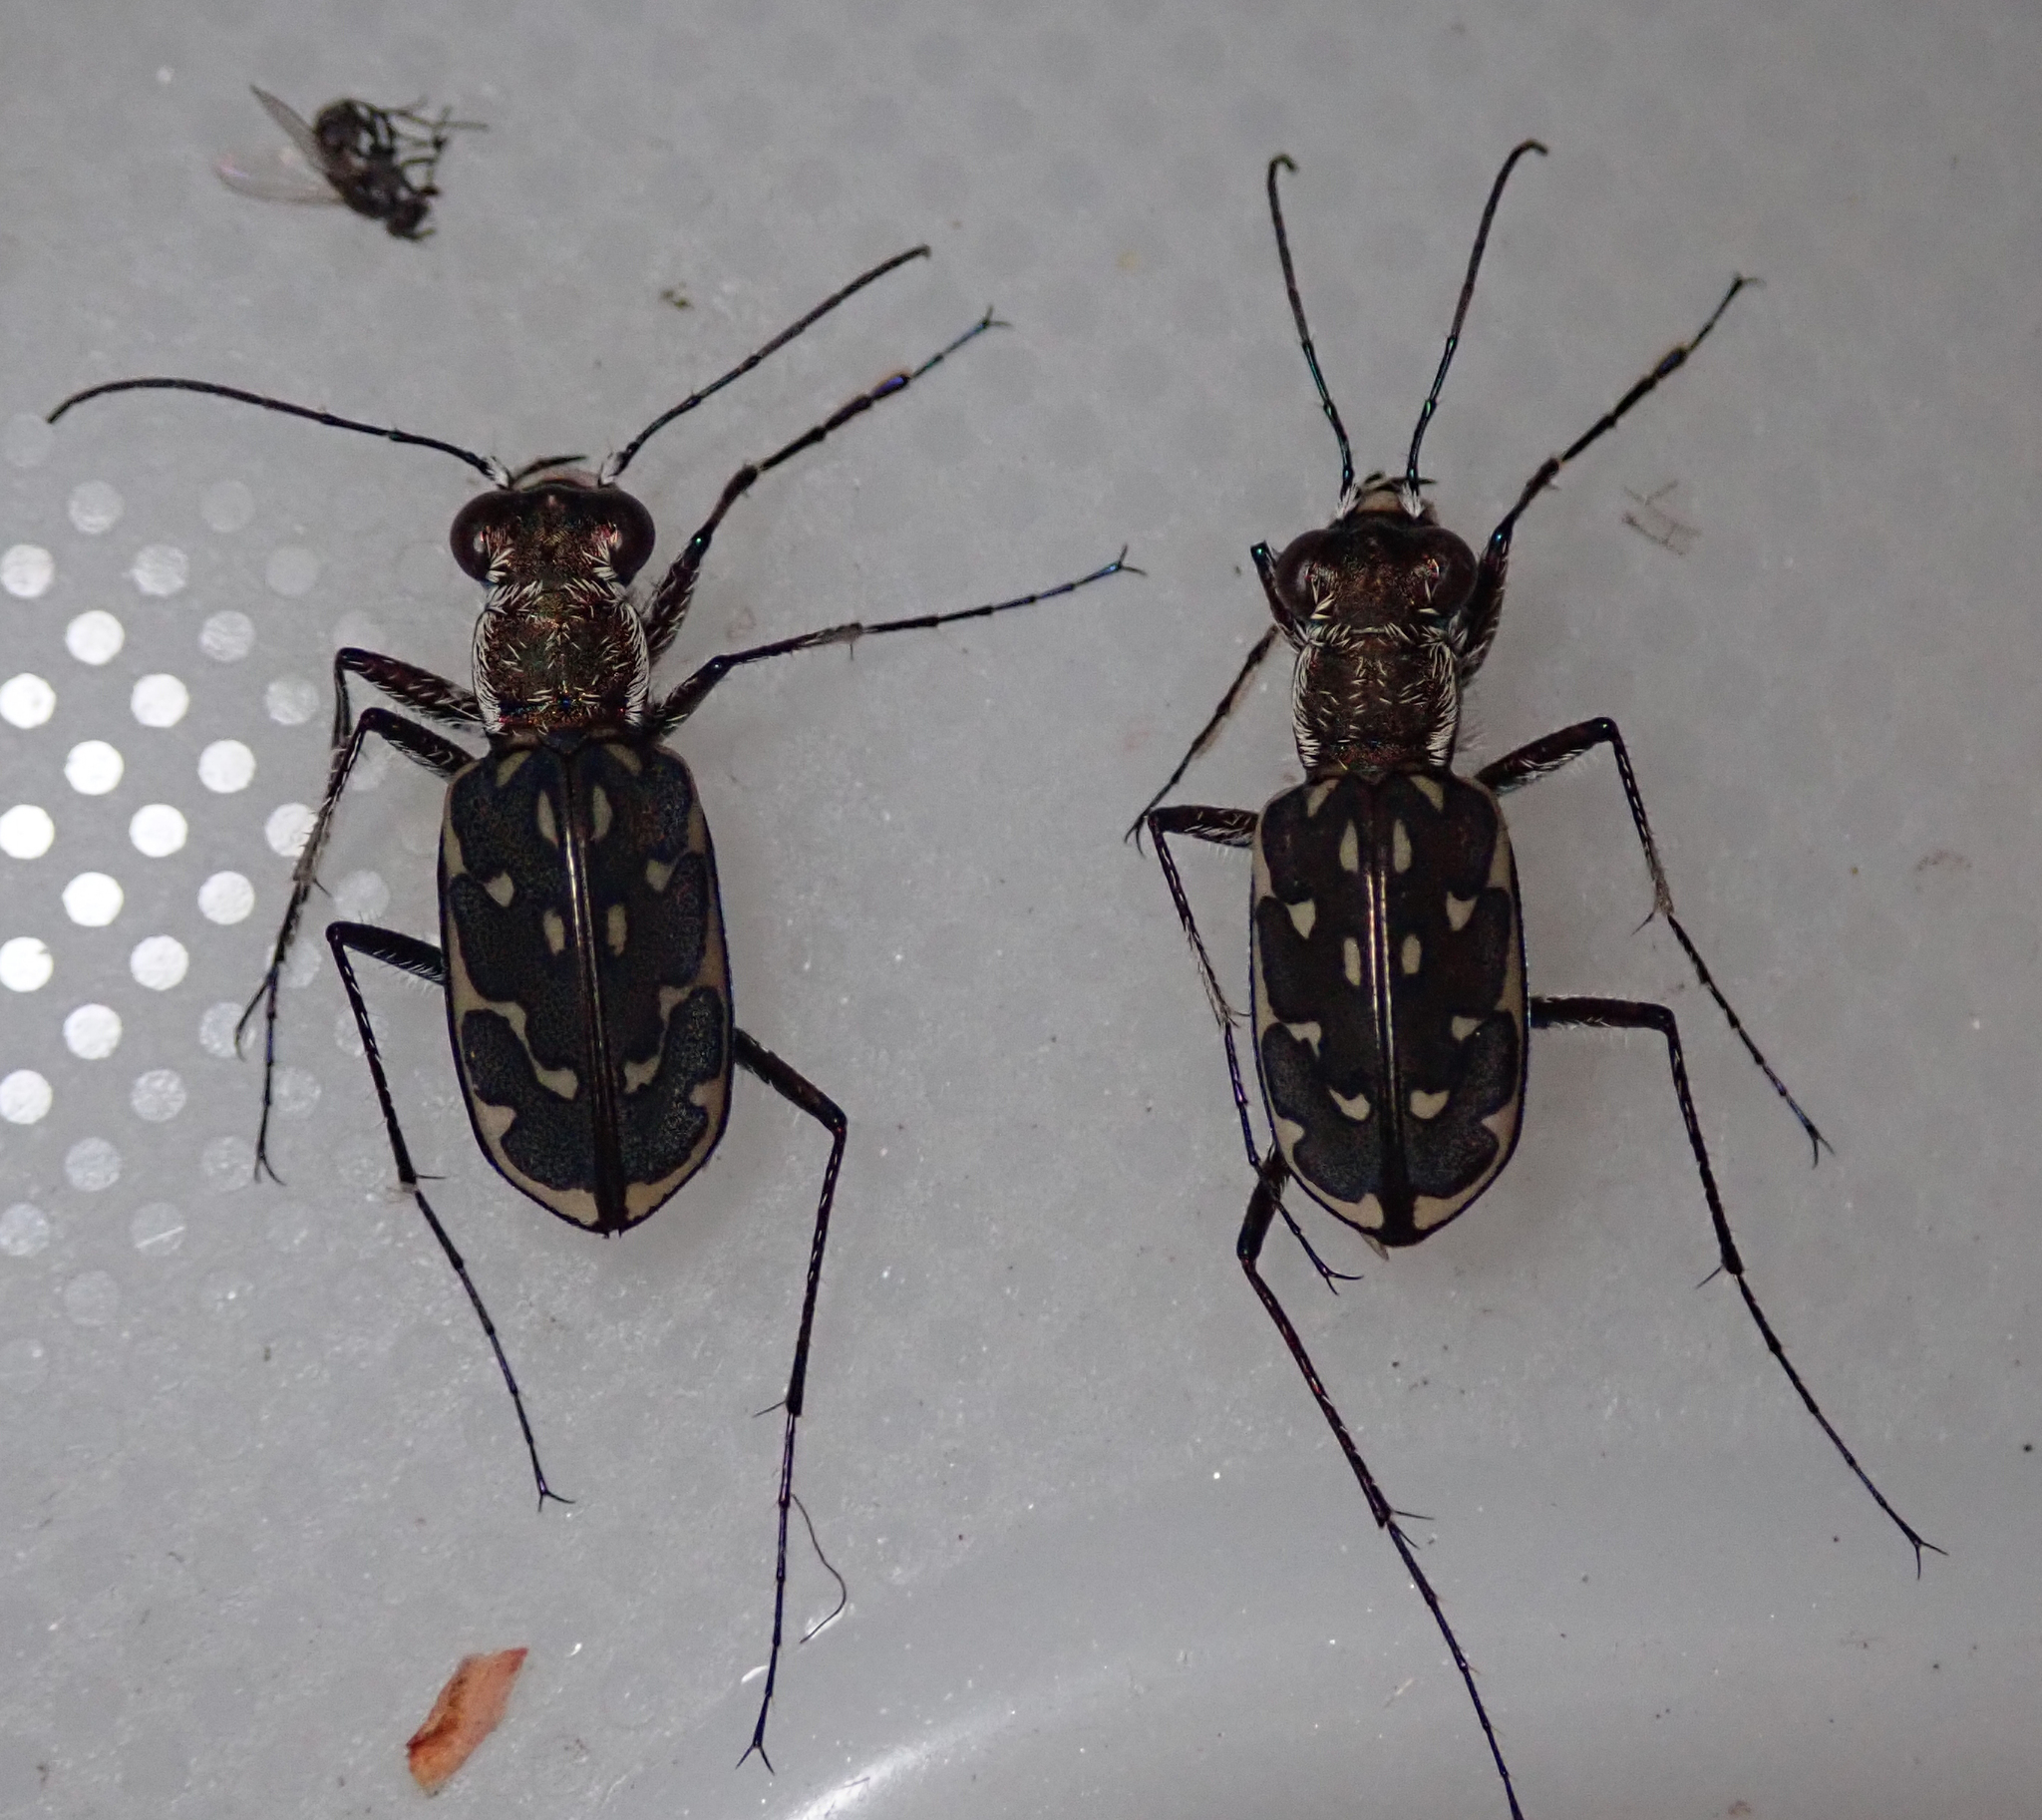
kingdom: Animalia
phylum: Arthropoda
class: Insecta
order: Coleoptera
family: Carabidae
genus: Lophyra
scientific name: Lophyra reliqua
